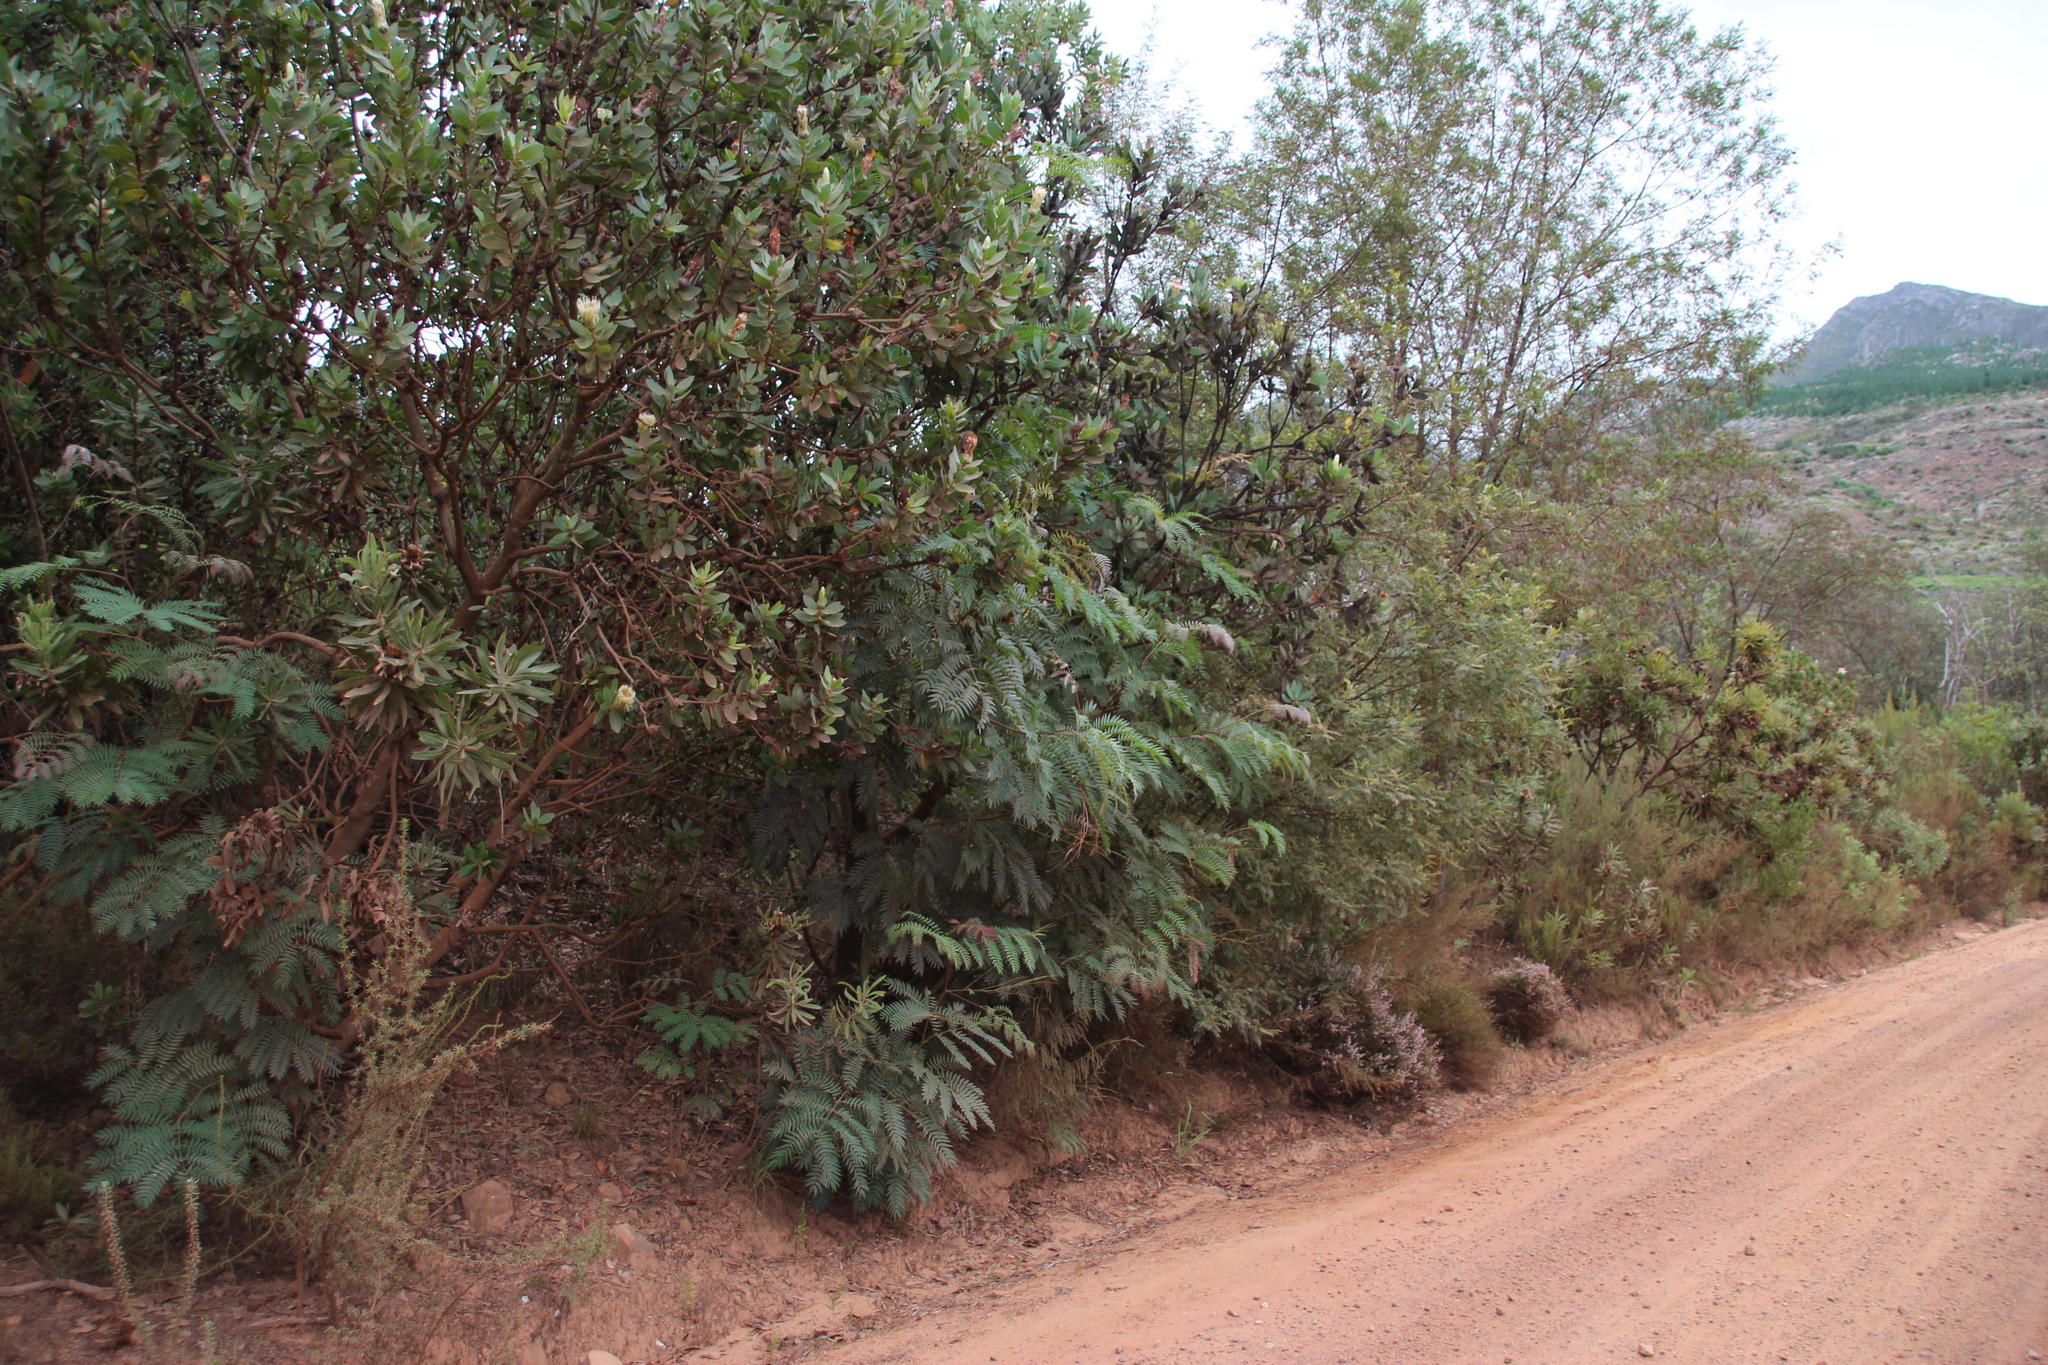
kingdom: Plantae
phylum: Tracheophyta
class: Magnoliopsida
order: Fabales
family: Fabaceae
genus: Acacia
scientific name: Acacia elata
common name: Cedar wattle
